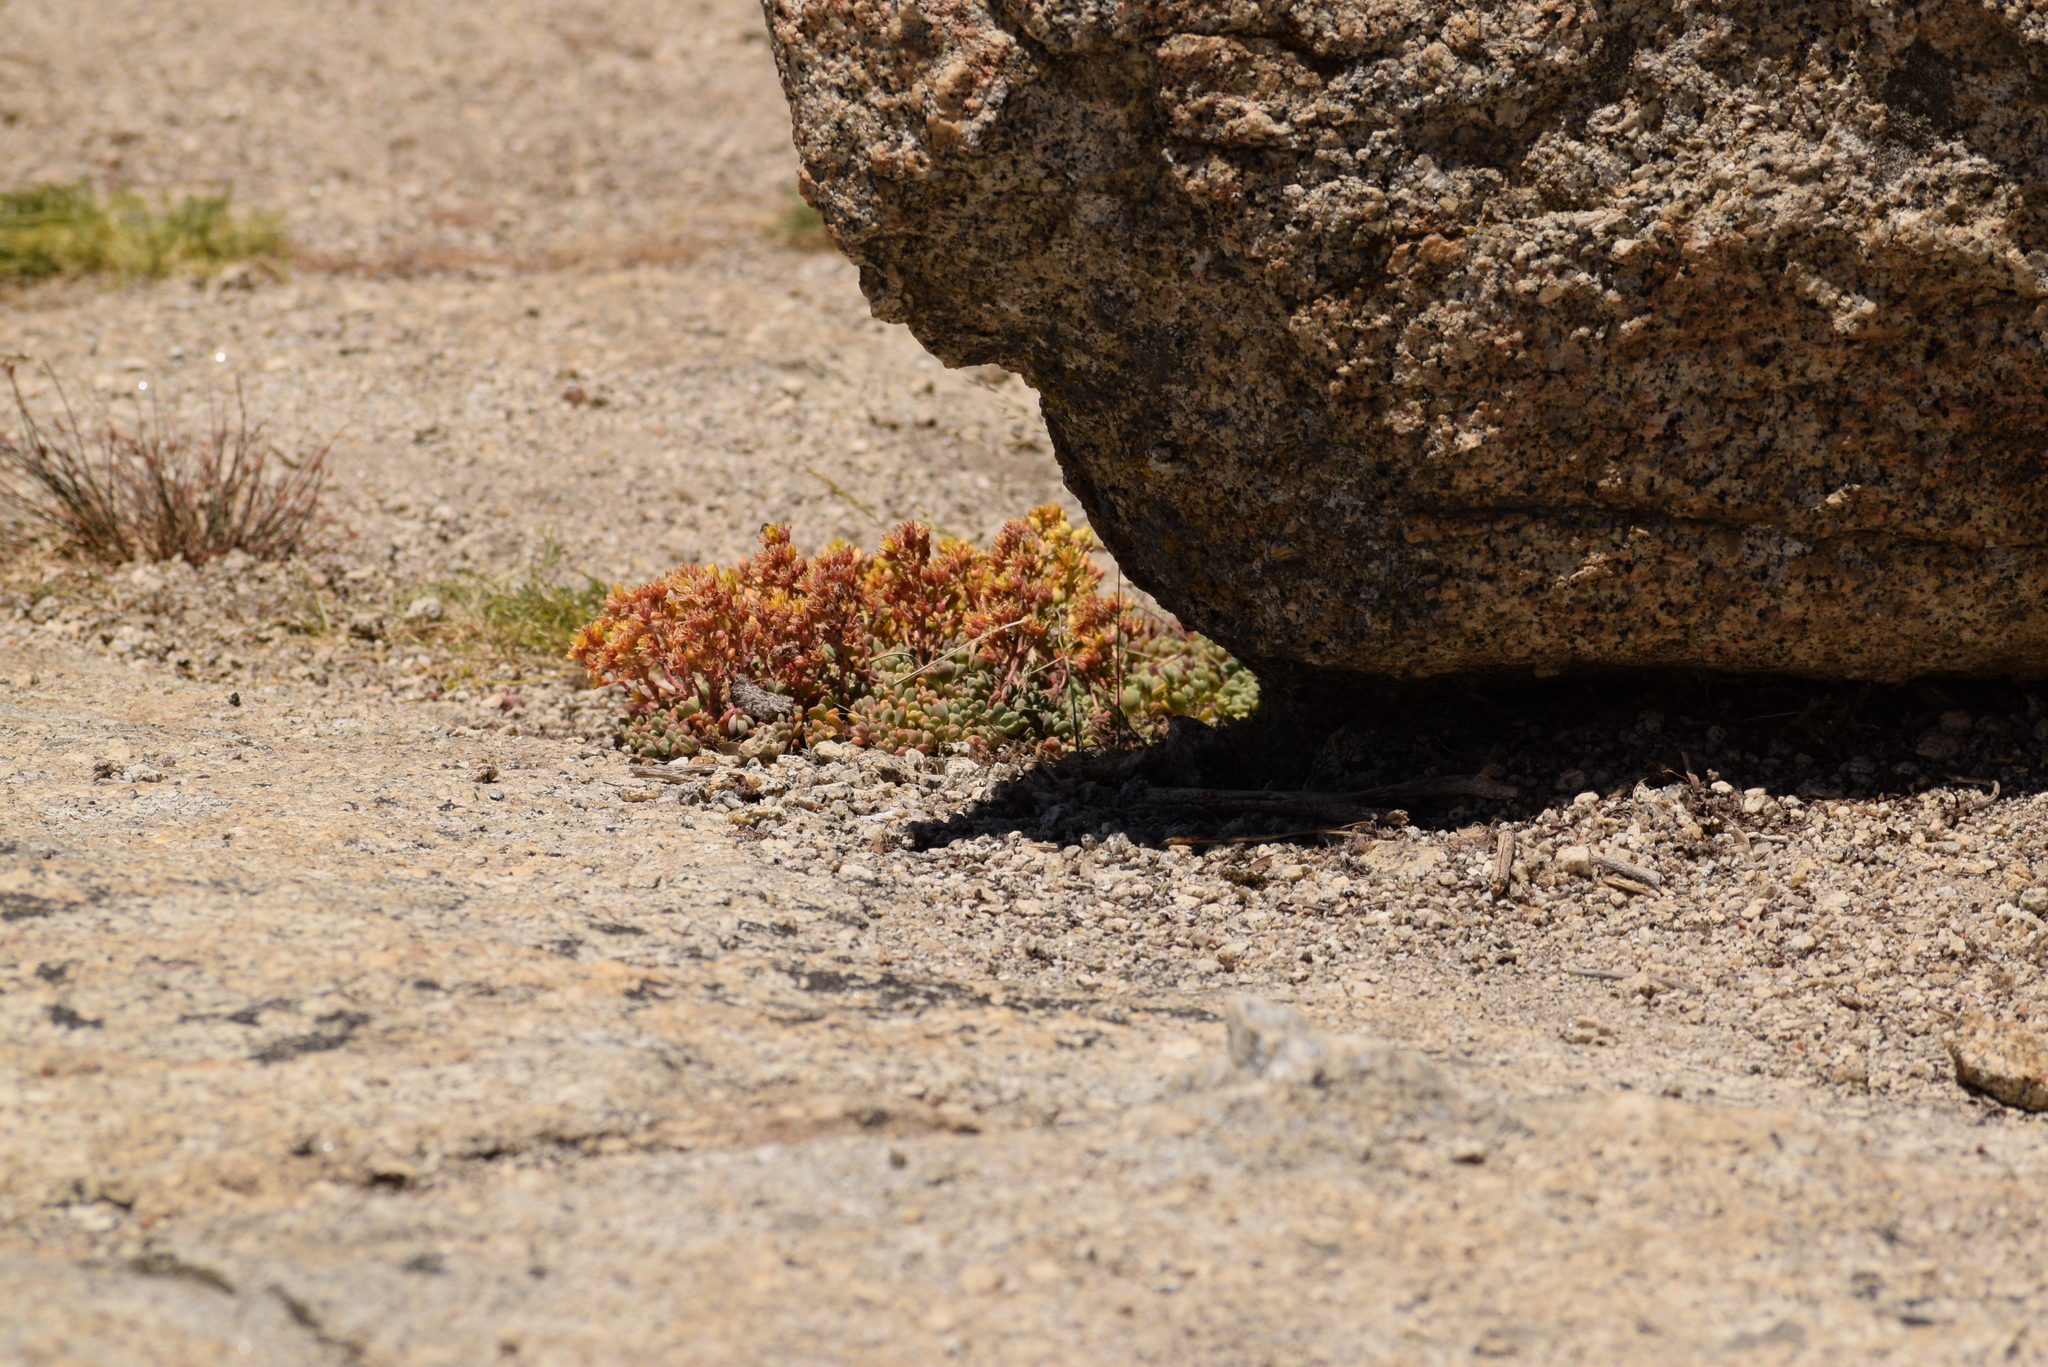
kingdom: Plantae
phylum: Tracheophyta
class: Magnoliopsida
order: Saxifragales
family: Crassulaceae
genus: Sedum
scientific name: Sedum obtusatum
